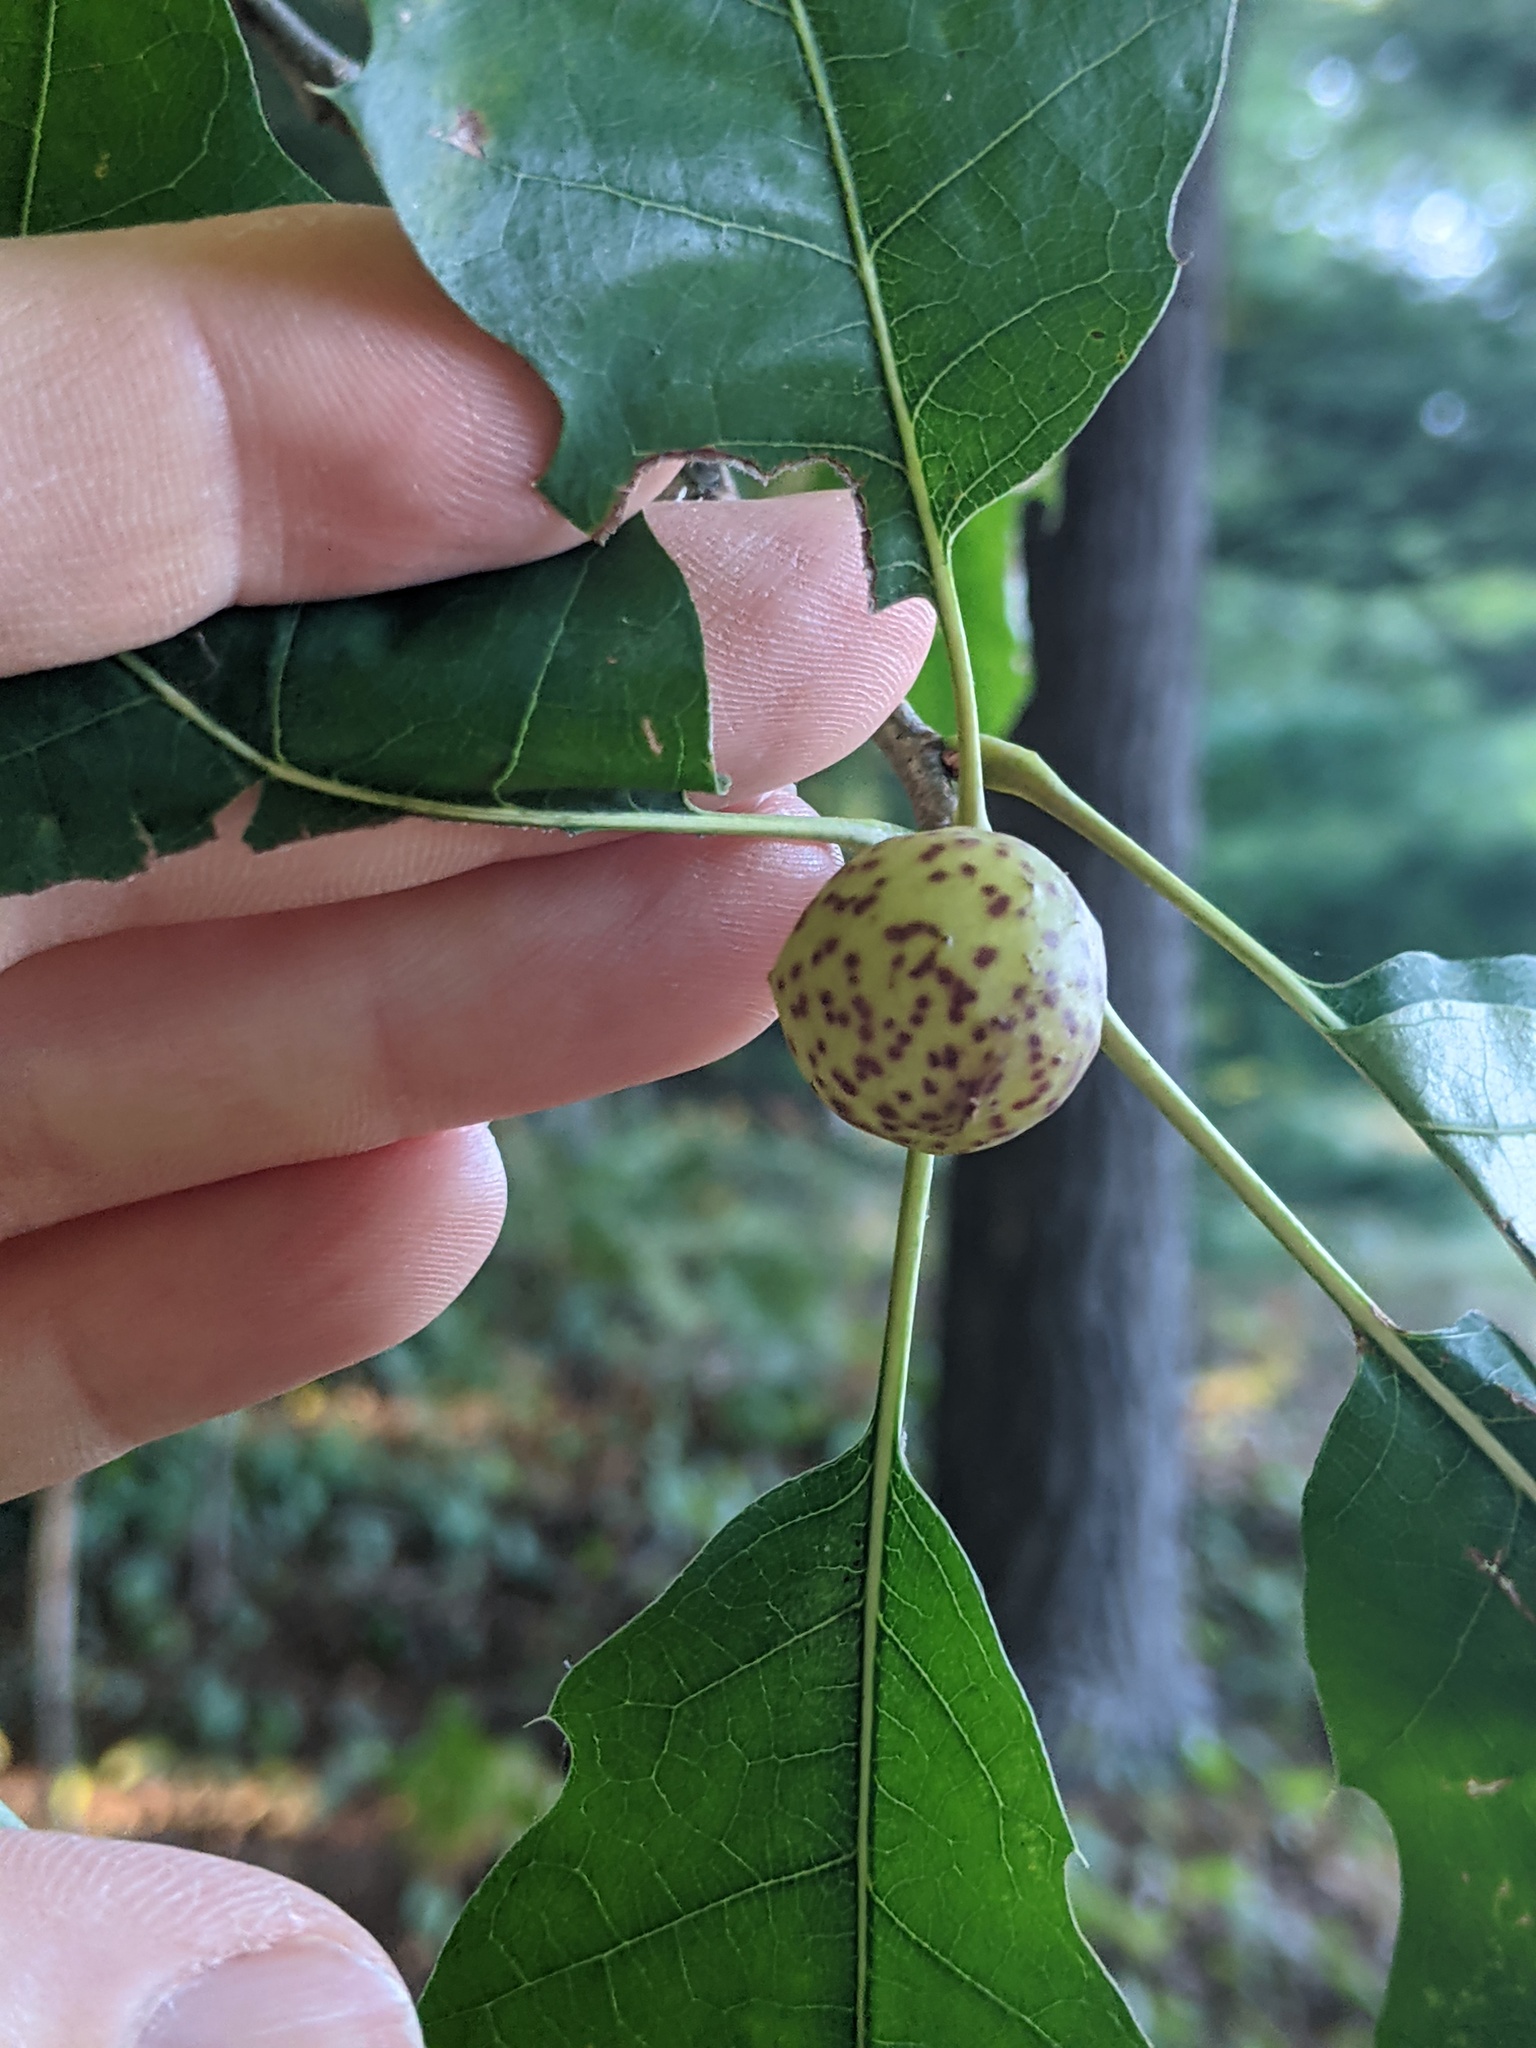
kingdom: Animalia
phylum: Arthropoda
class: Insecta
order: Hymenoptera
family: Cynipidae
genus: Amphibolips
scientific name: Amphibolips
